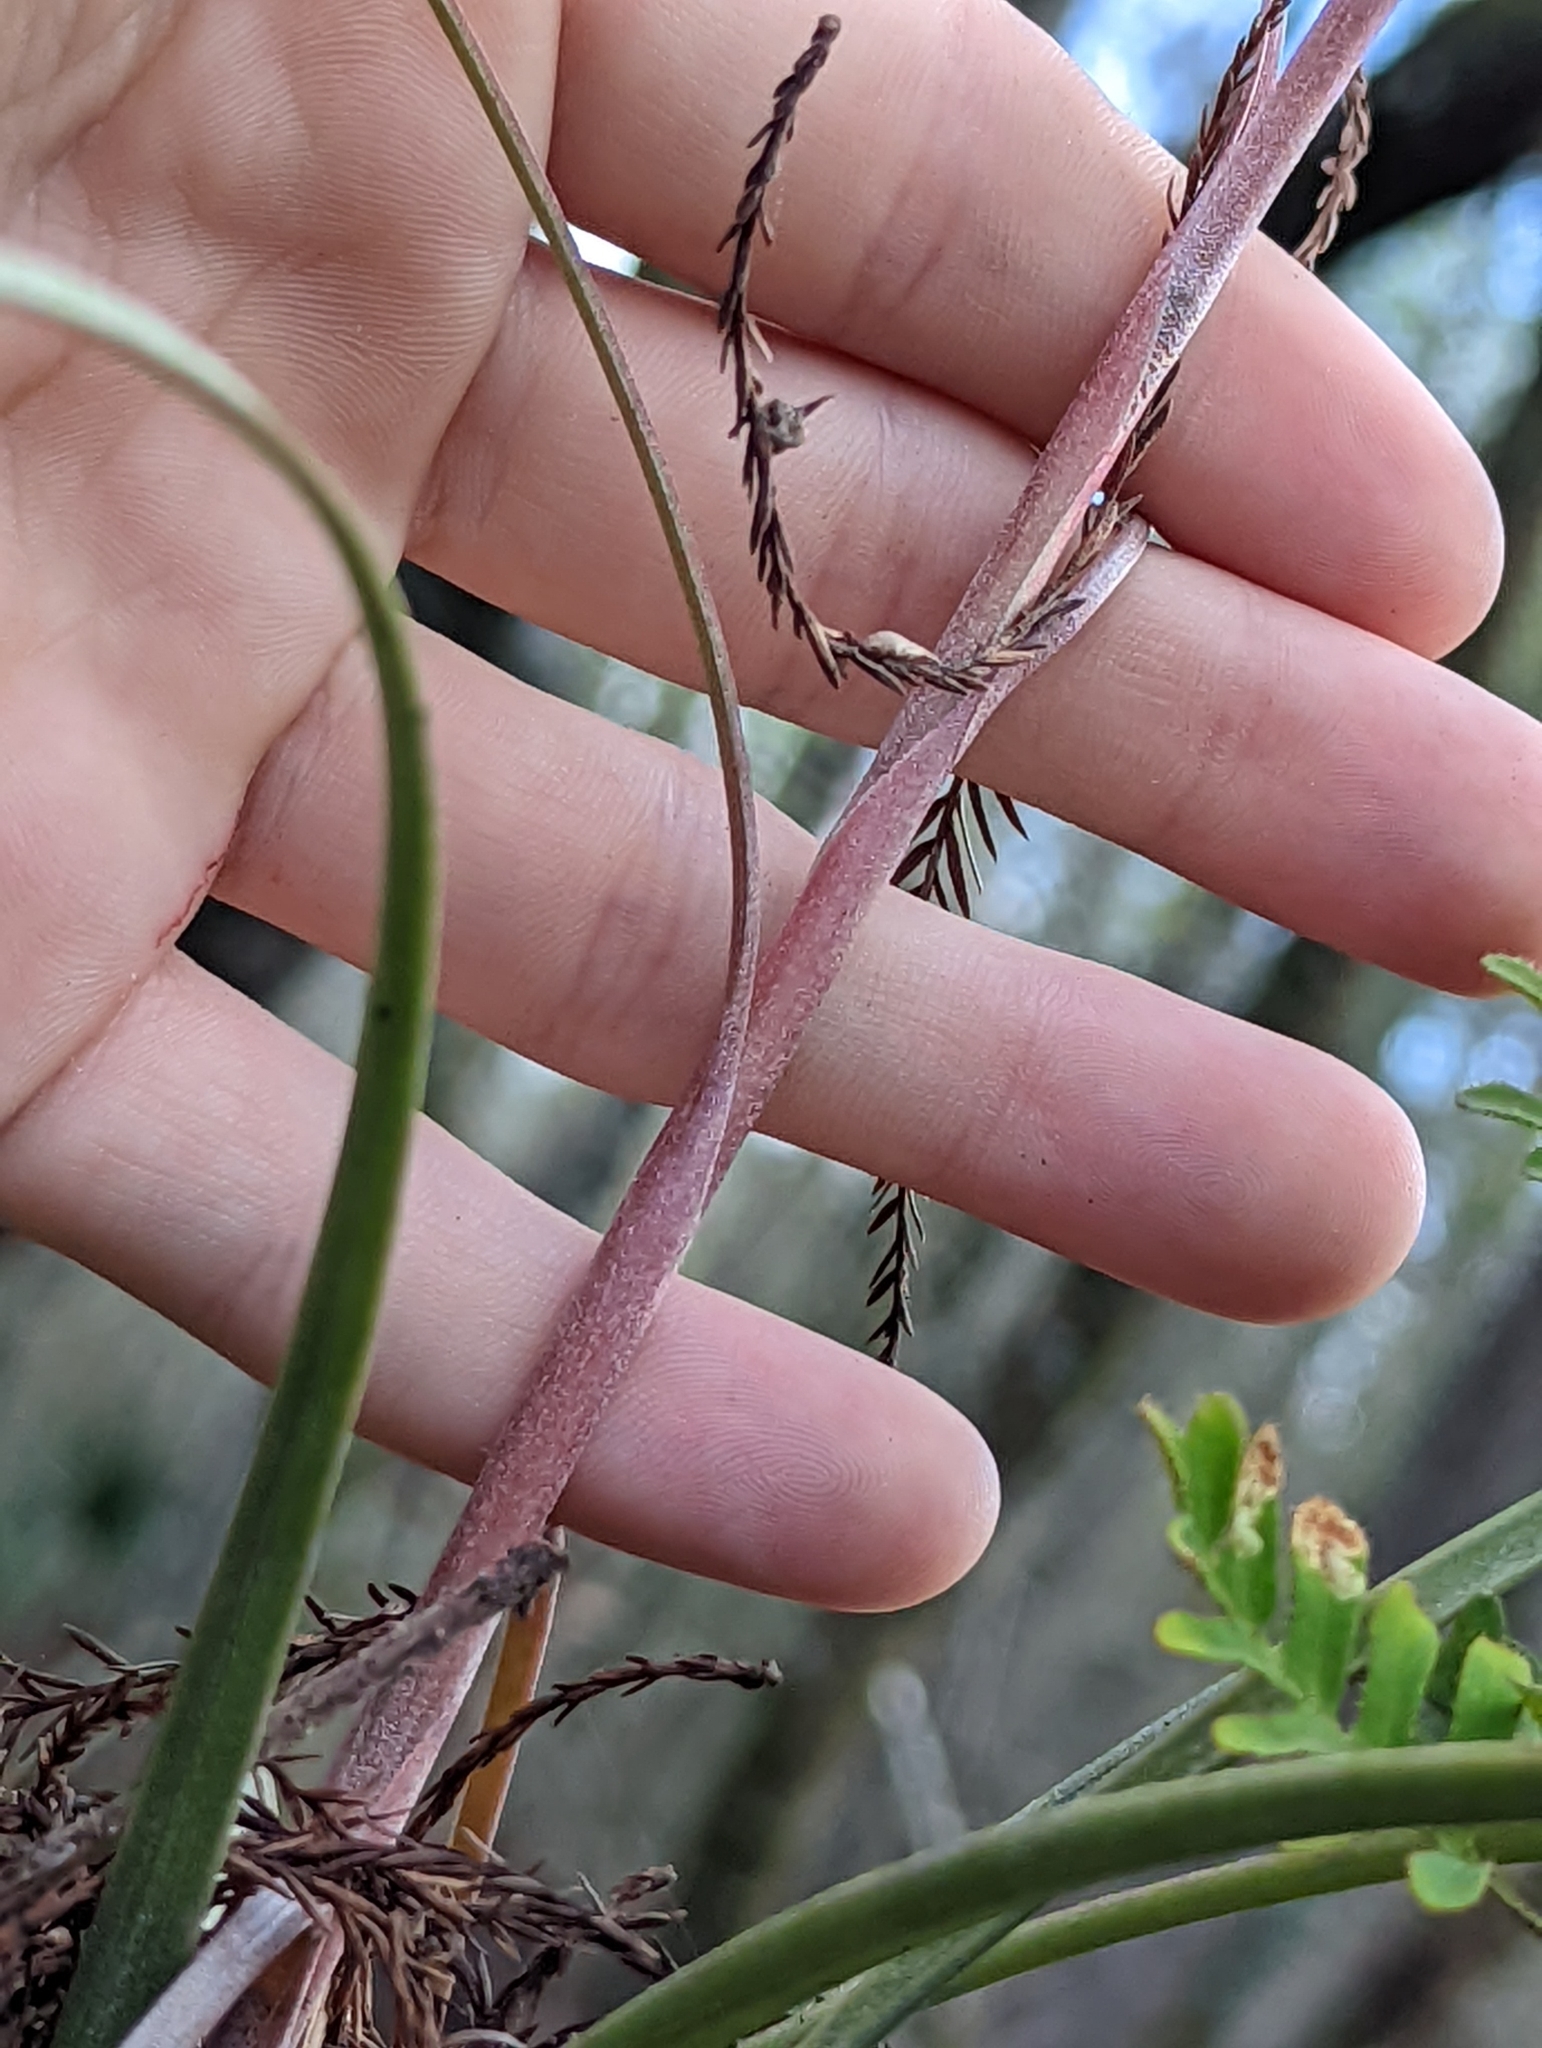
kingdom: Plantae
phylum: Tracheophyta
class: Liliopsida
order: Poales
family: Bromeliaceae
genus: Tillandsia
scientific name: Tillandsia simulata
